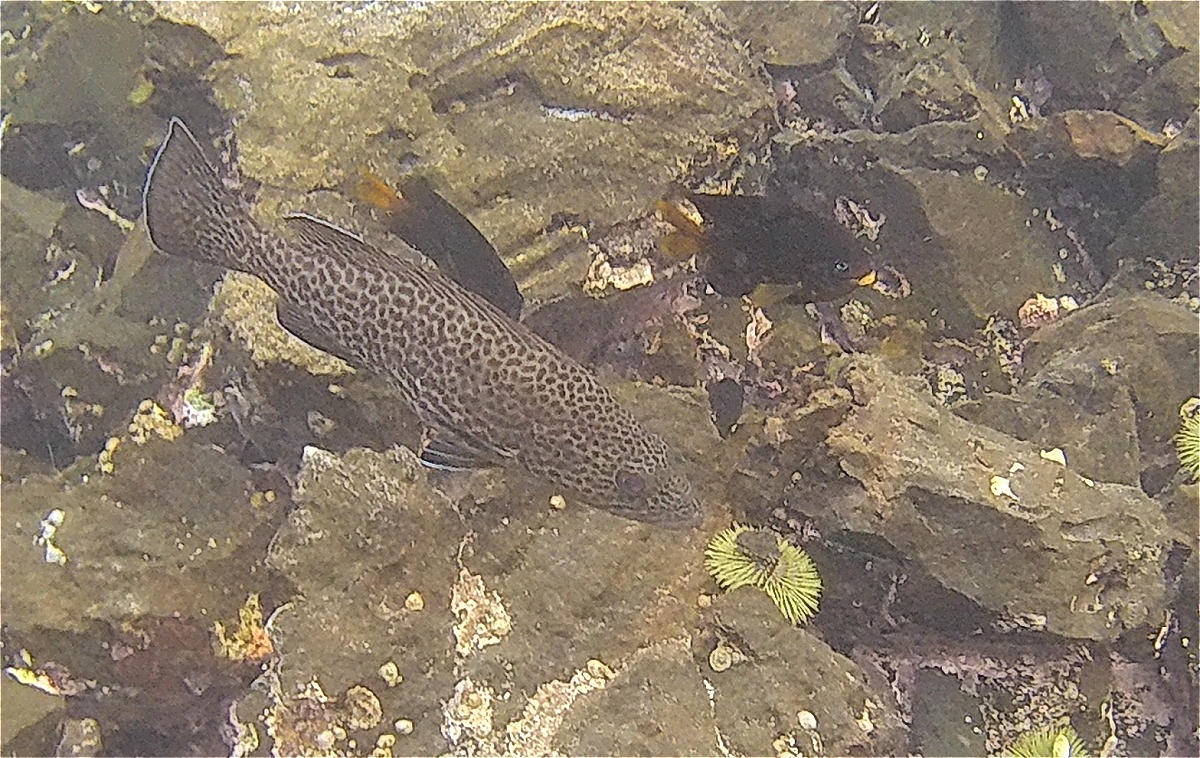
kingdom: Animalia
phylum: Chordata
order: Perciformes
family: Serranidae
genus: Epinephelus
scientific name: Epinephelus analogus
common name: Spotted cabrilla
